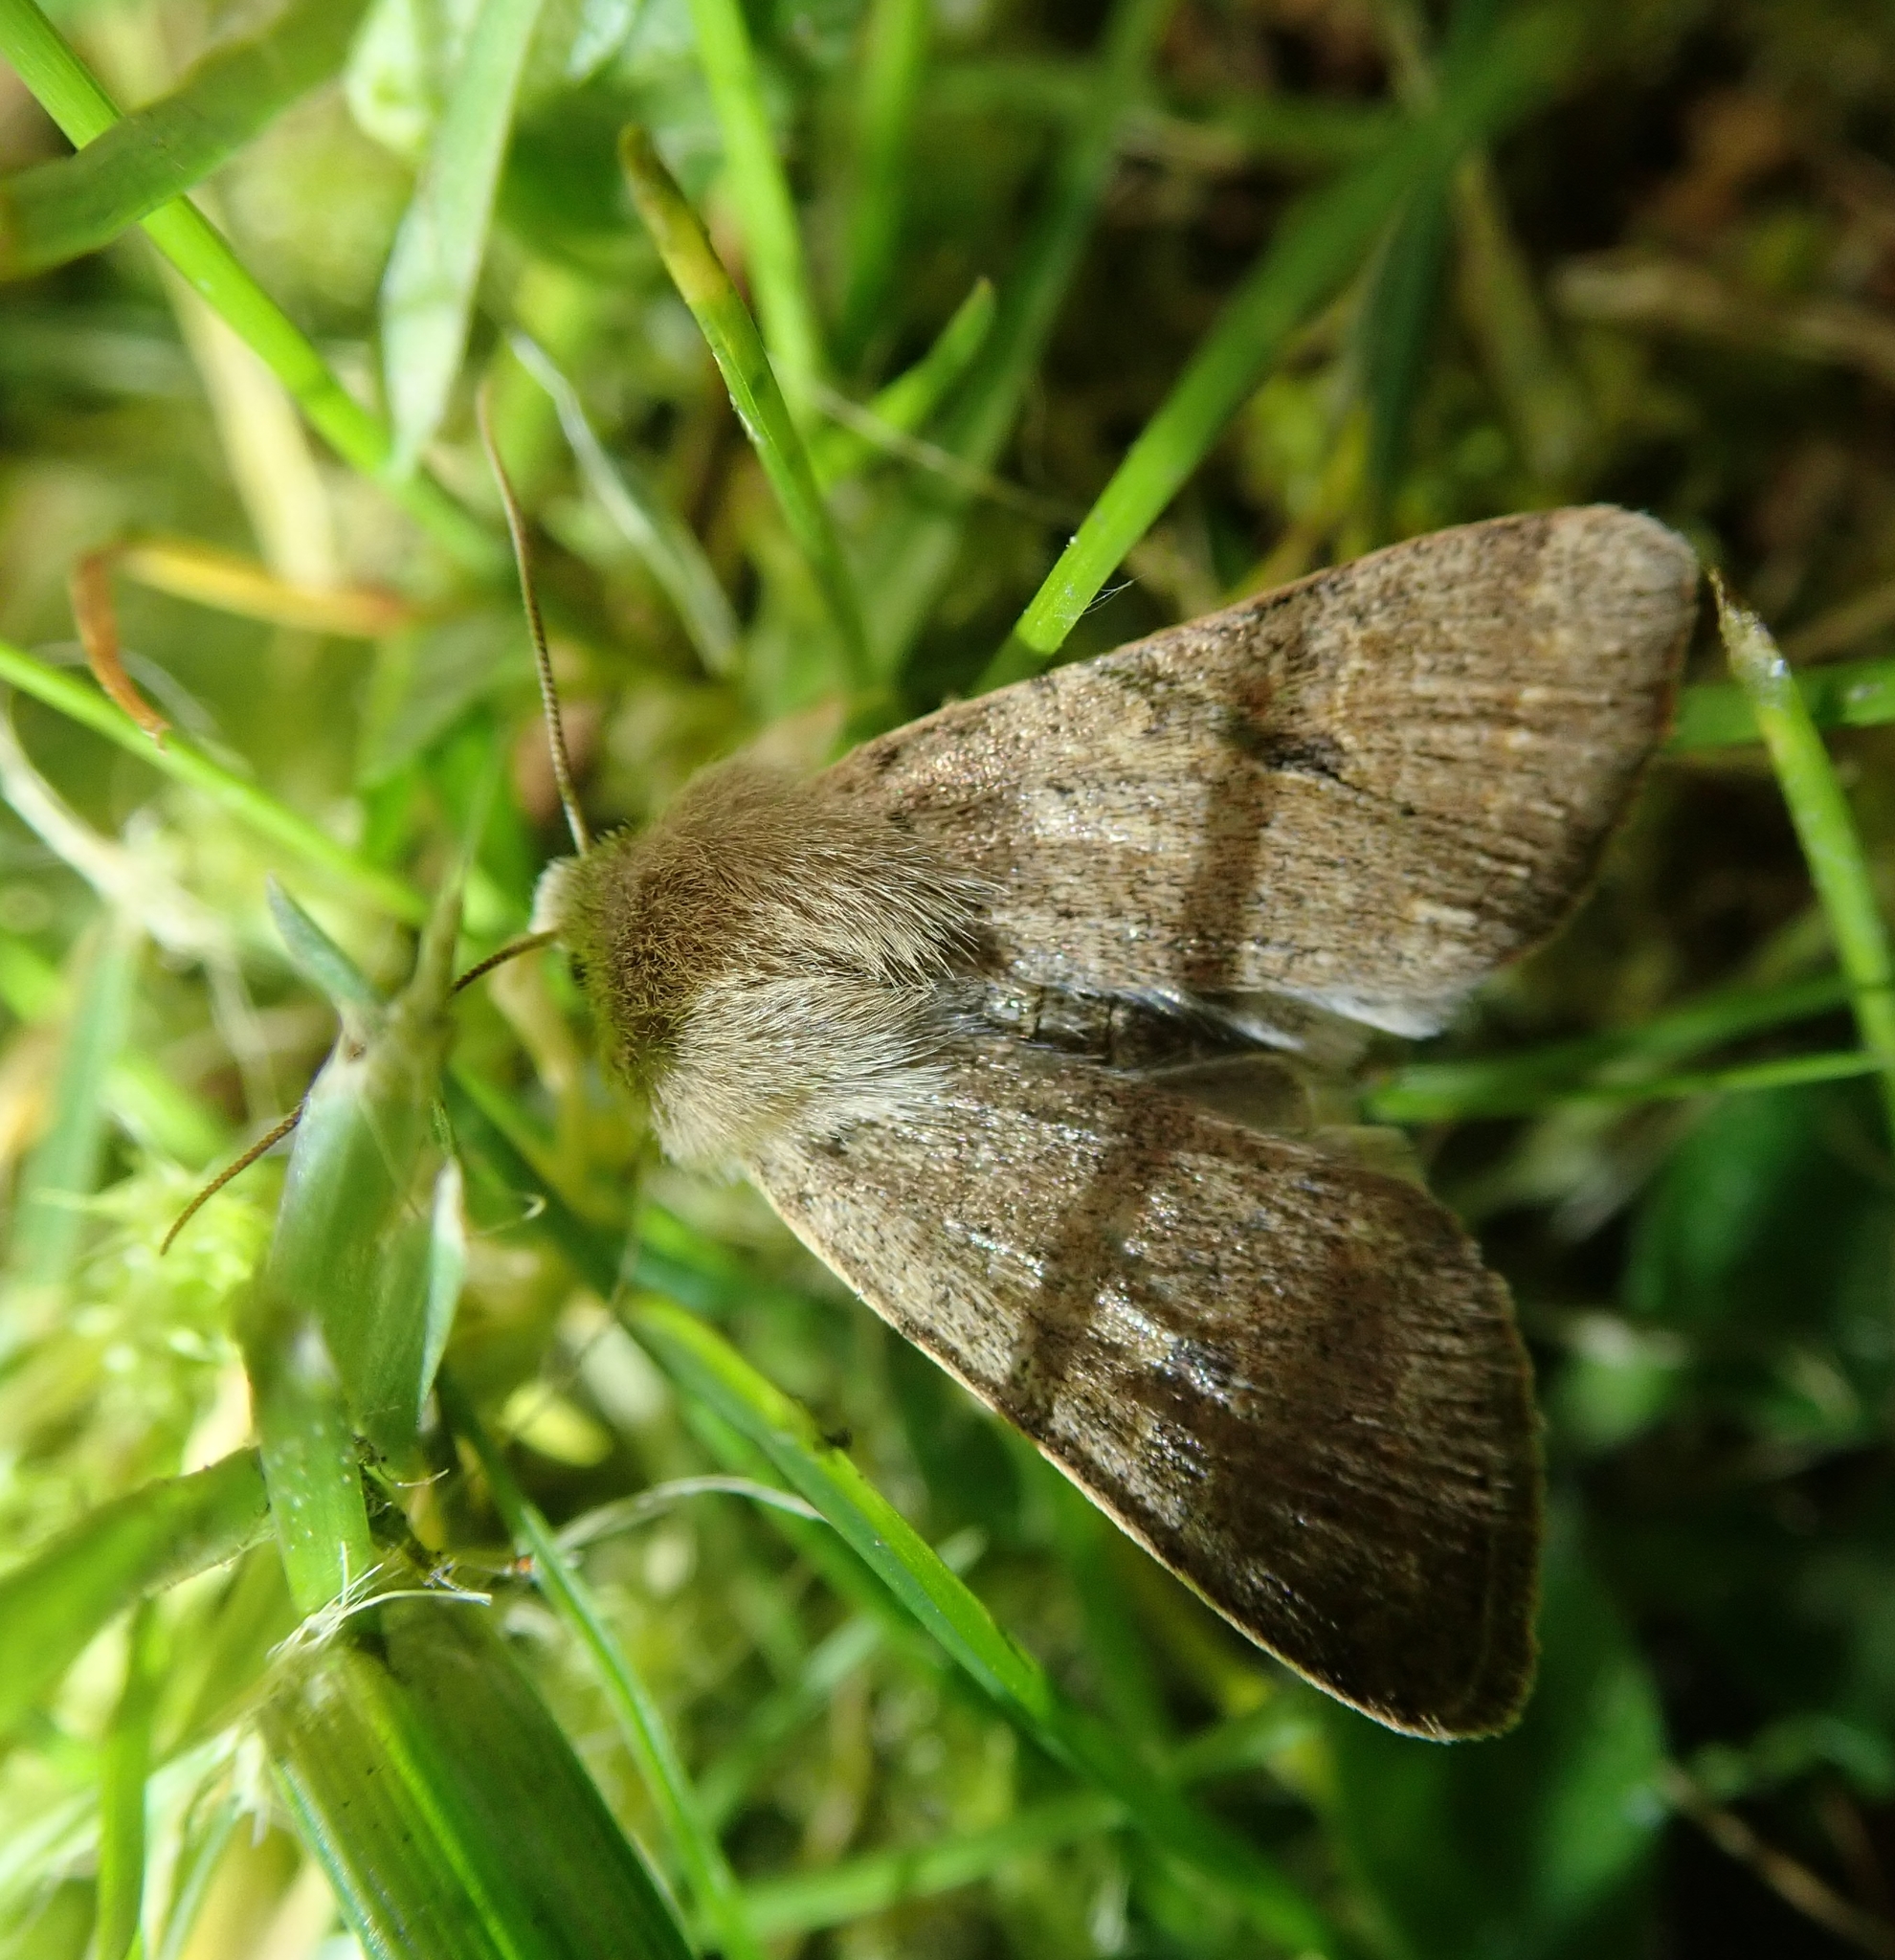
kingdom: Animalia
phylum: Arthropoda
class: Insecta
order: Lepidoptera
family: Noctuidae
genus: Orthosia
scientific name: Orthosia cruda
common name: Small quaker
